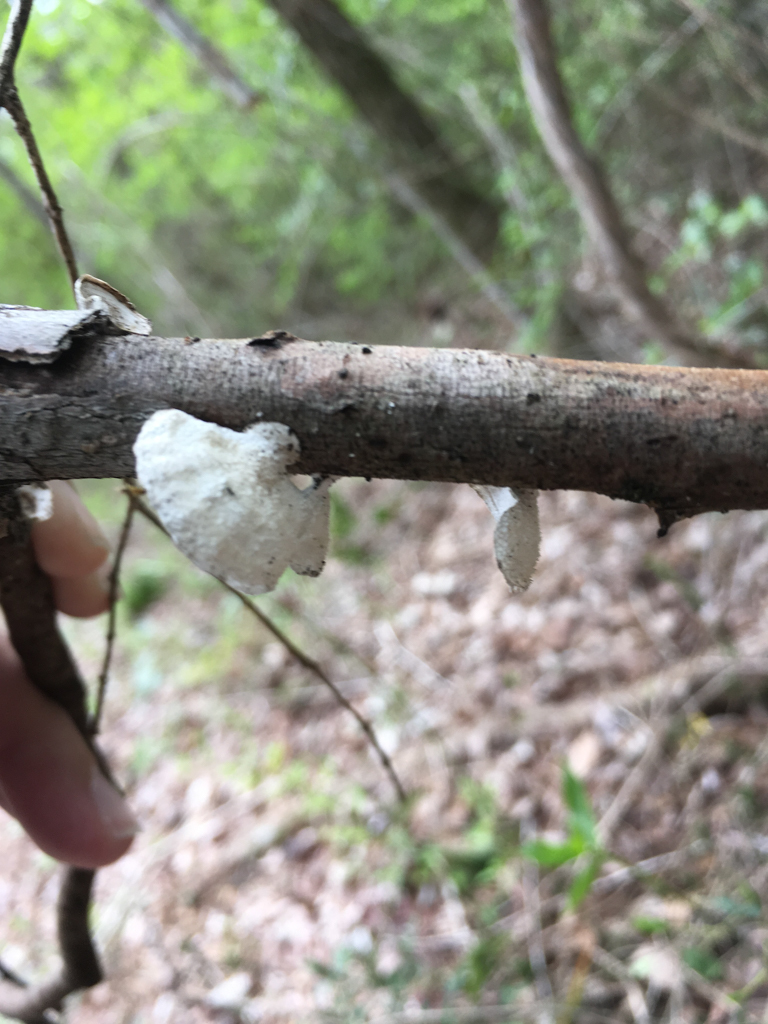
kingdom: Fungi
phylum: Basidiomycota
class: Agaricomycetes
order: Polyporales
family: Polyporaceae
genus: Poronidulus
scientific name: Poronidulus conchifer
